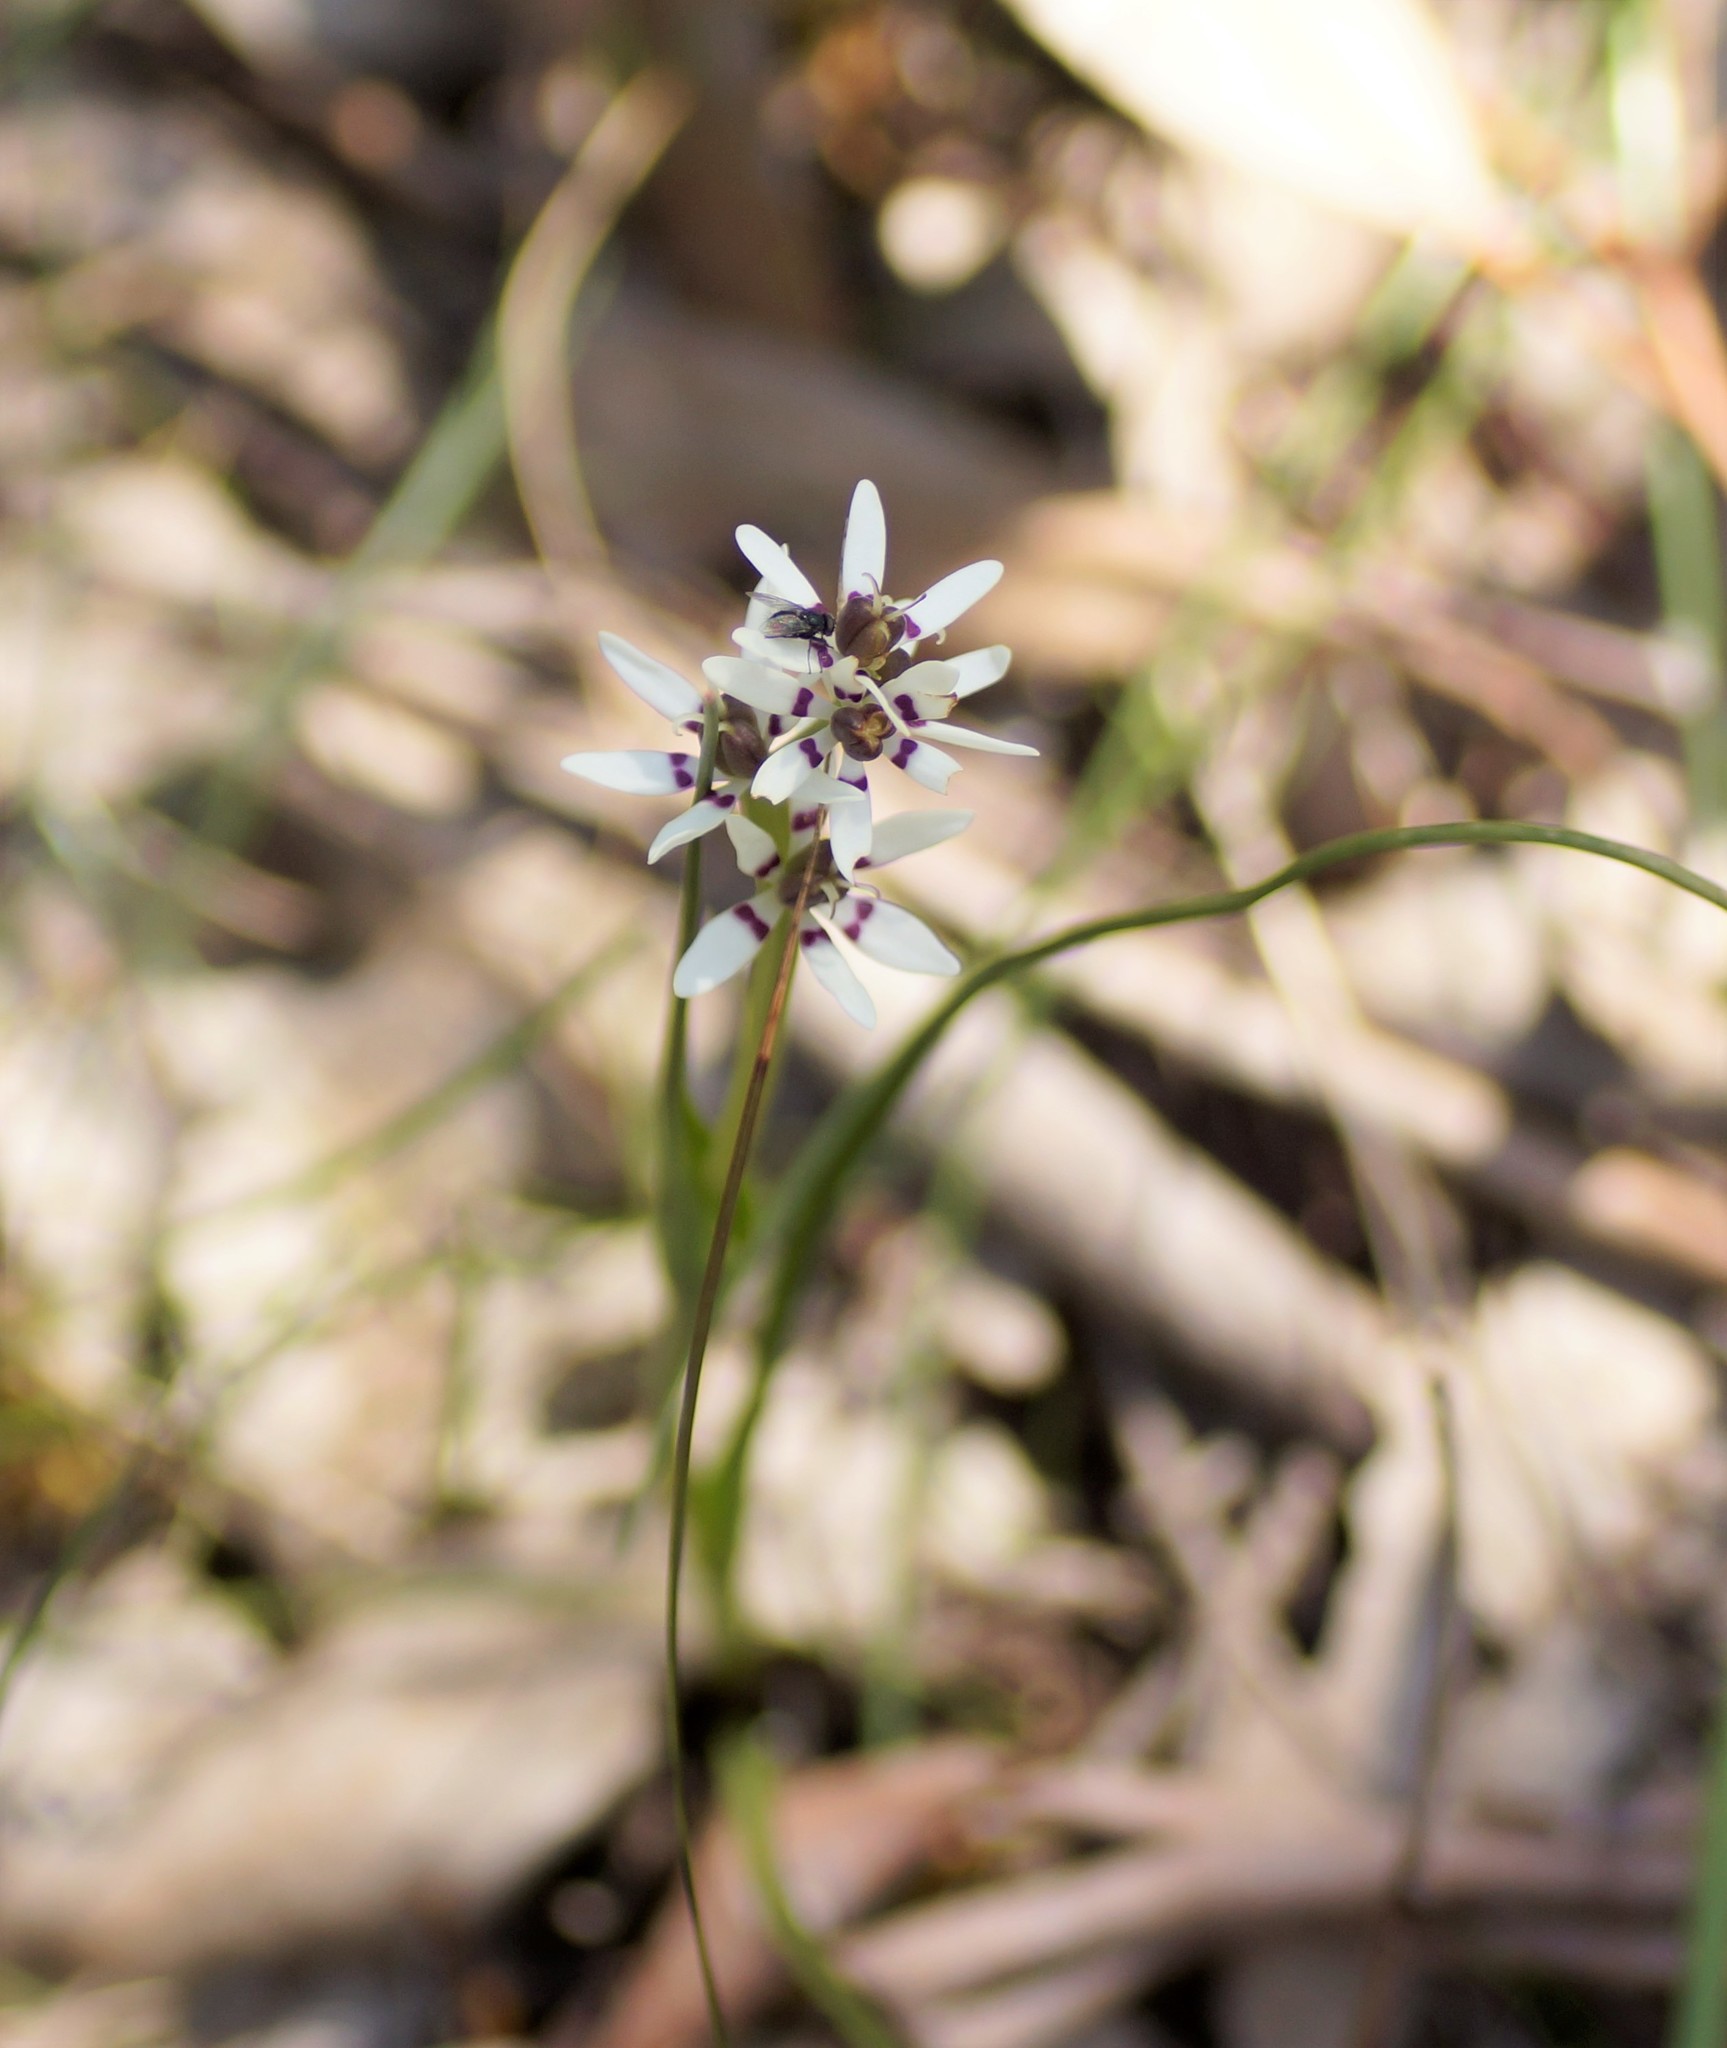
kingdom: Plantae
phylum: Tracheophyta
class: Liliopsida
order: Liliales
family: Colchicaceae
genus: Wurmbea
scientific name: Wurmbea dioica
